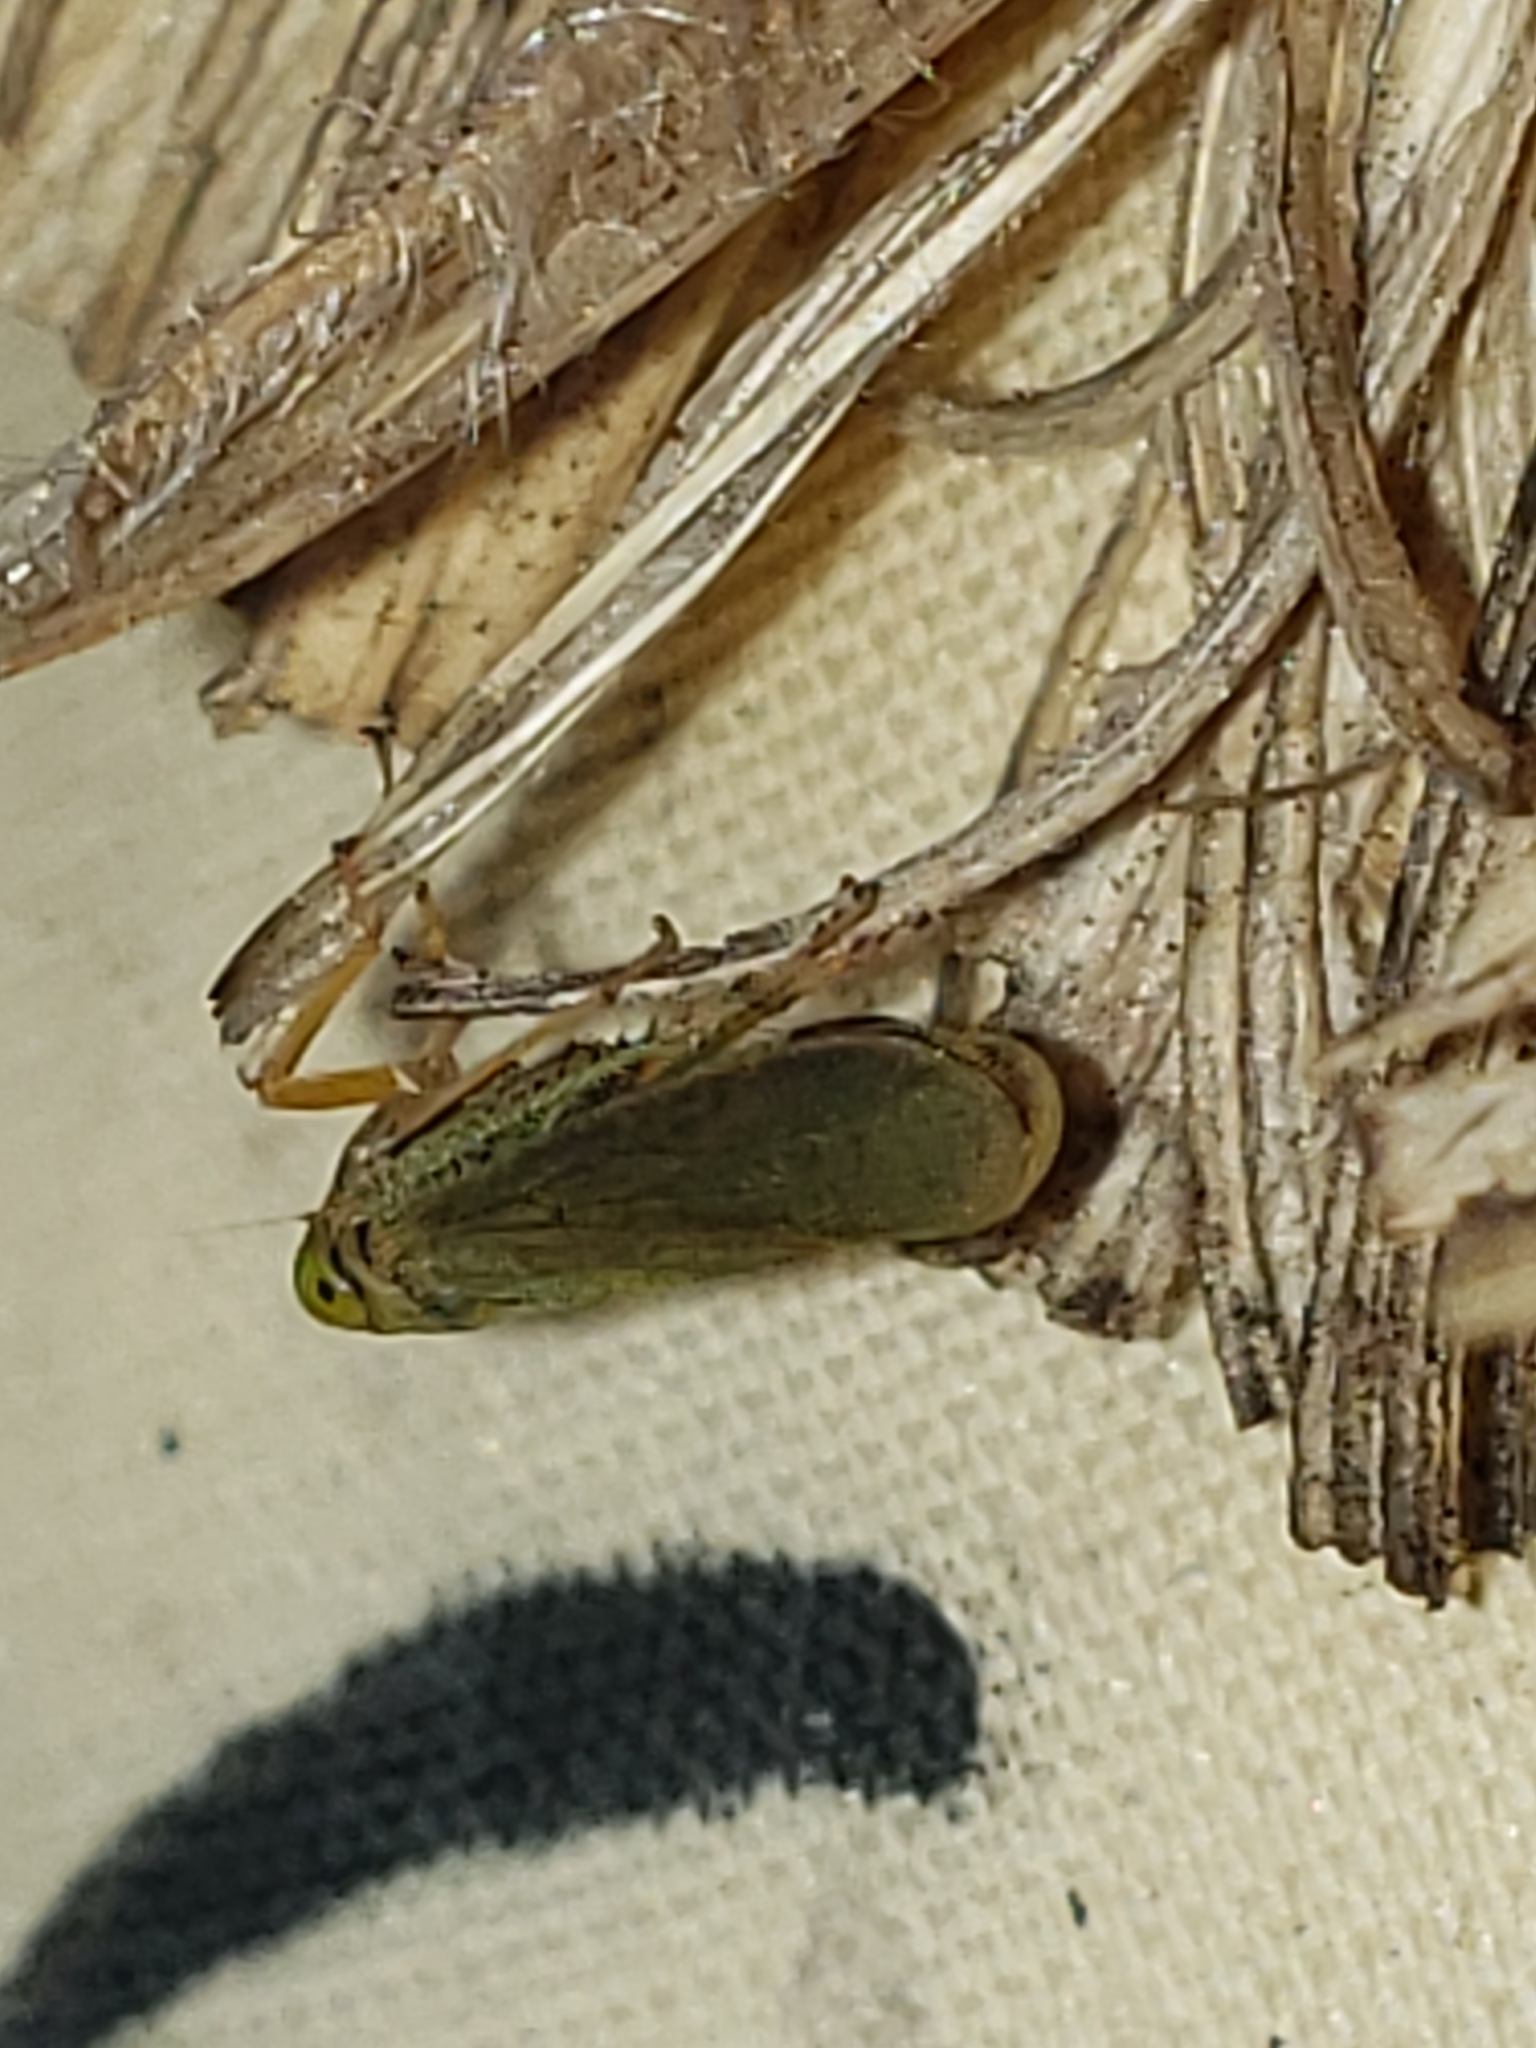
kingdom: Animalia
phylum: Arthropoda
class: Insecta
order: Hemiptera
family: Cicadellidae
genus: Jikradia
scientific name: Jikradia olitoria
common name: Coppery leafhopper
